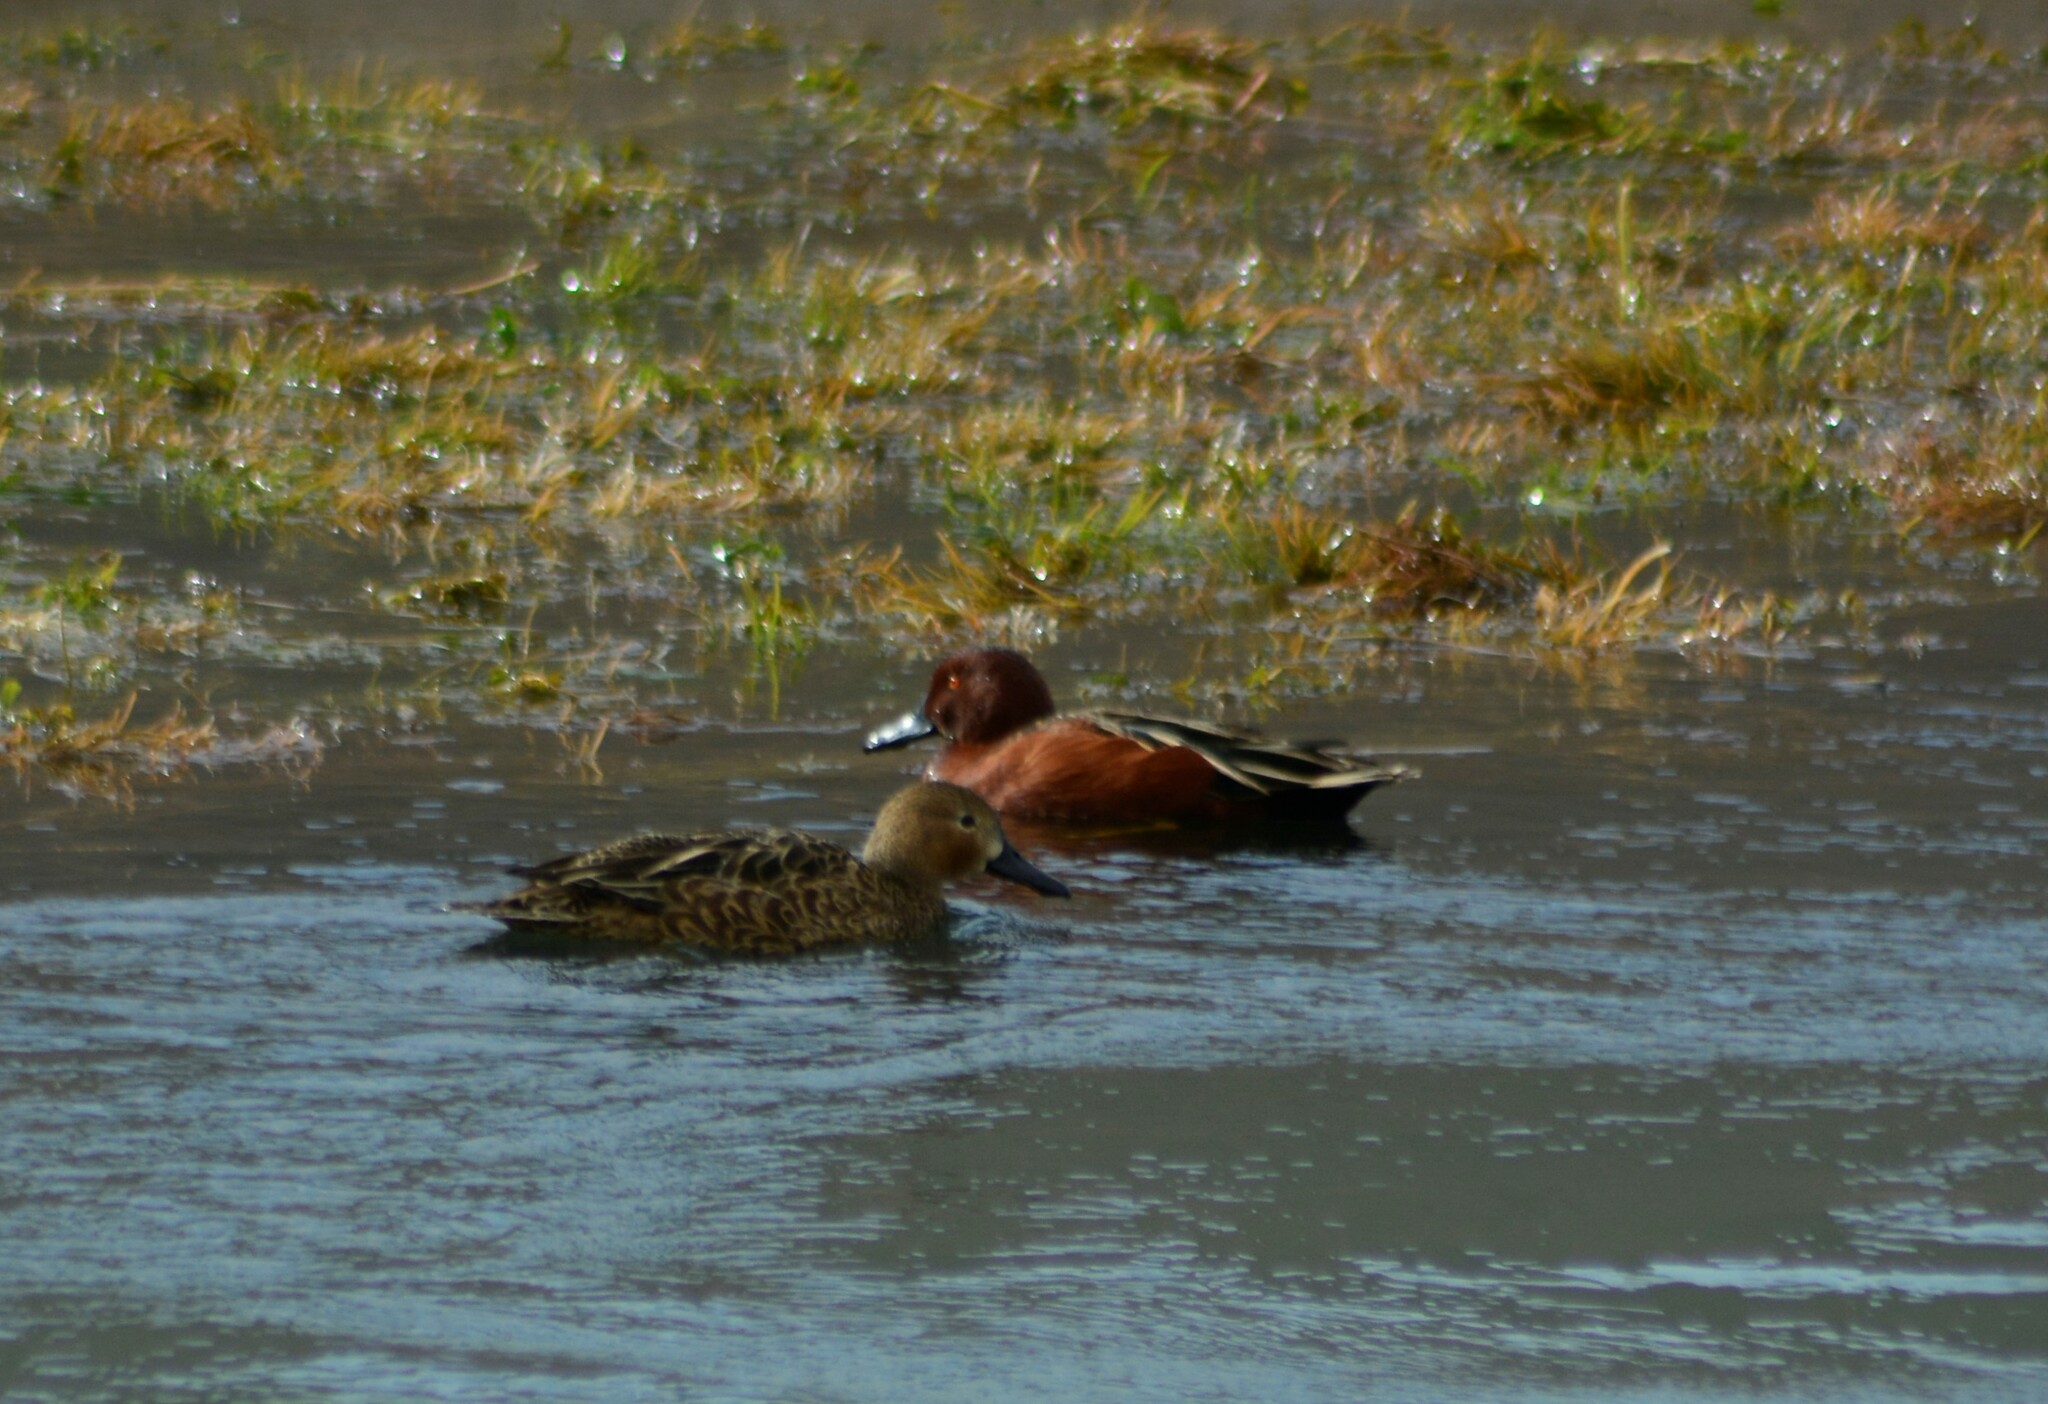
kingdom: Animalia
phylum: Chordata
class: Aves
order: Anseriformes
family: Anatidae
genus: Spatula
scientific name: Spatula cyanoptera
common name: Cinnamon teal
